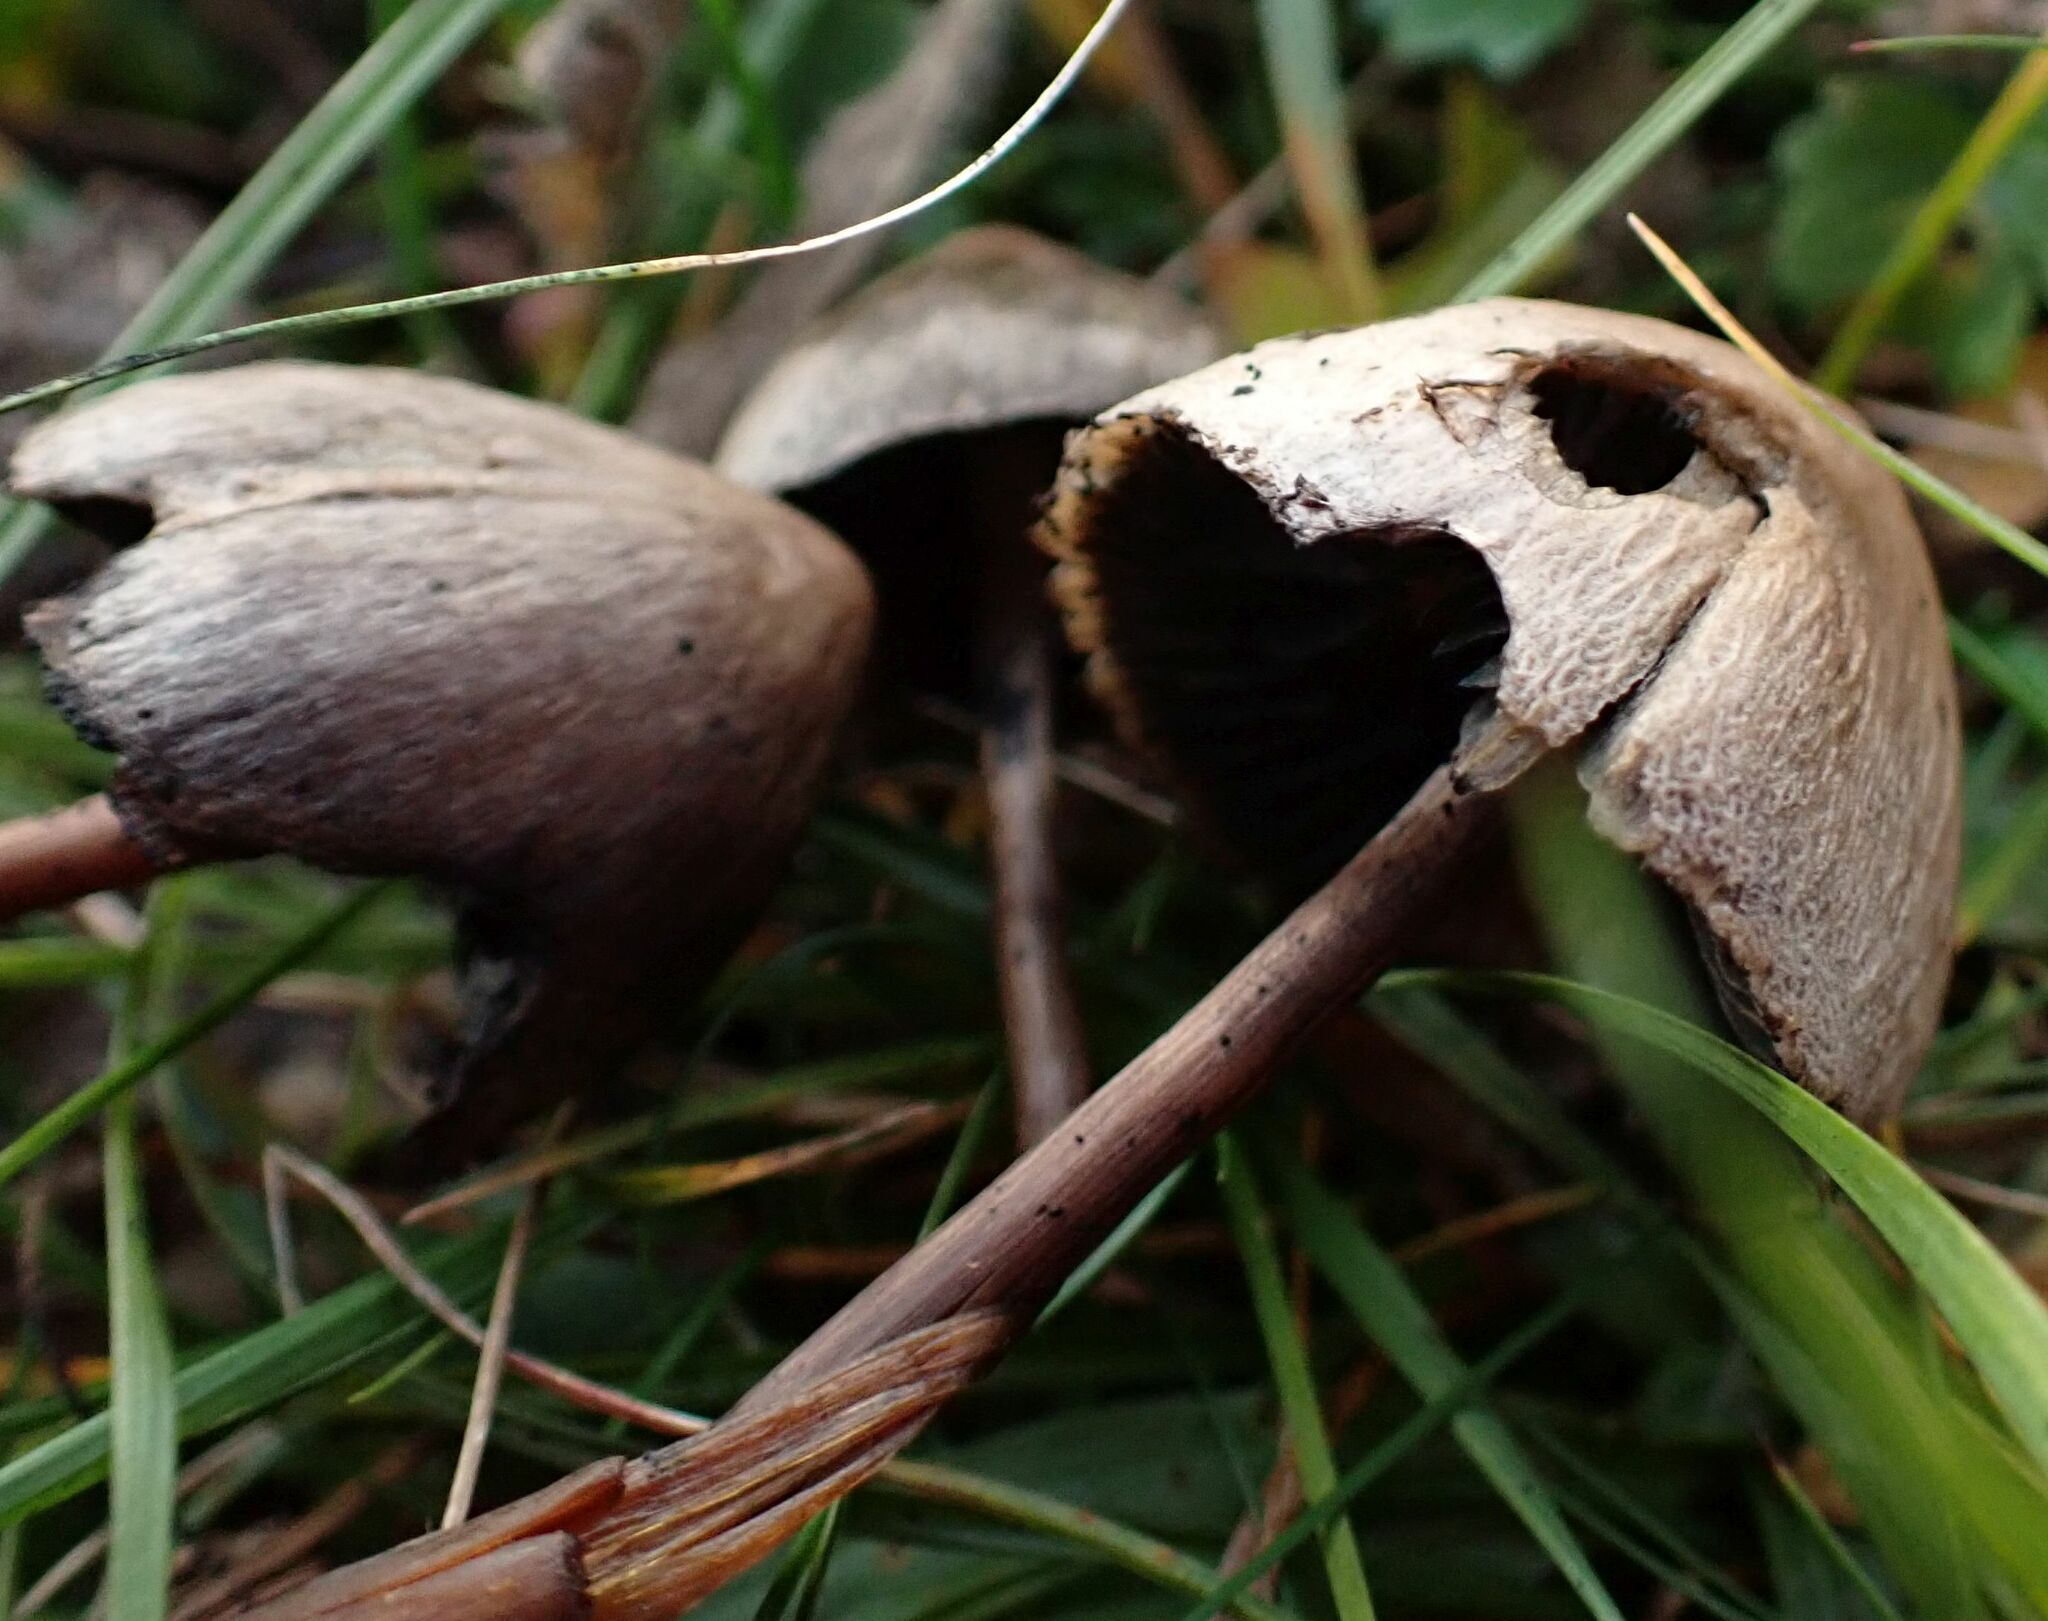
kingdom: Fungi
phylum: Basidiomycota
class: Agaricomycetes
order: Agaricales
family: Bolbitiaceae
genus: Panaeolus
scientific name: Panaeolus papilionaceus
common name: Petticoat mottlegill
